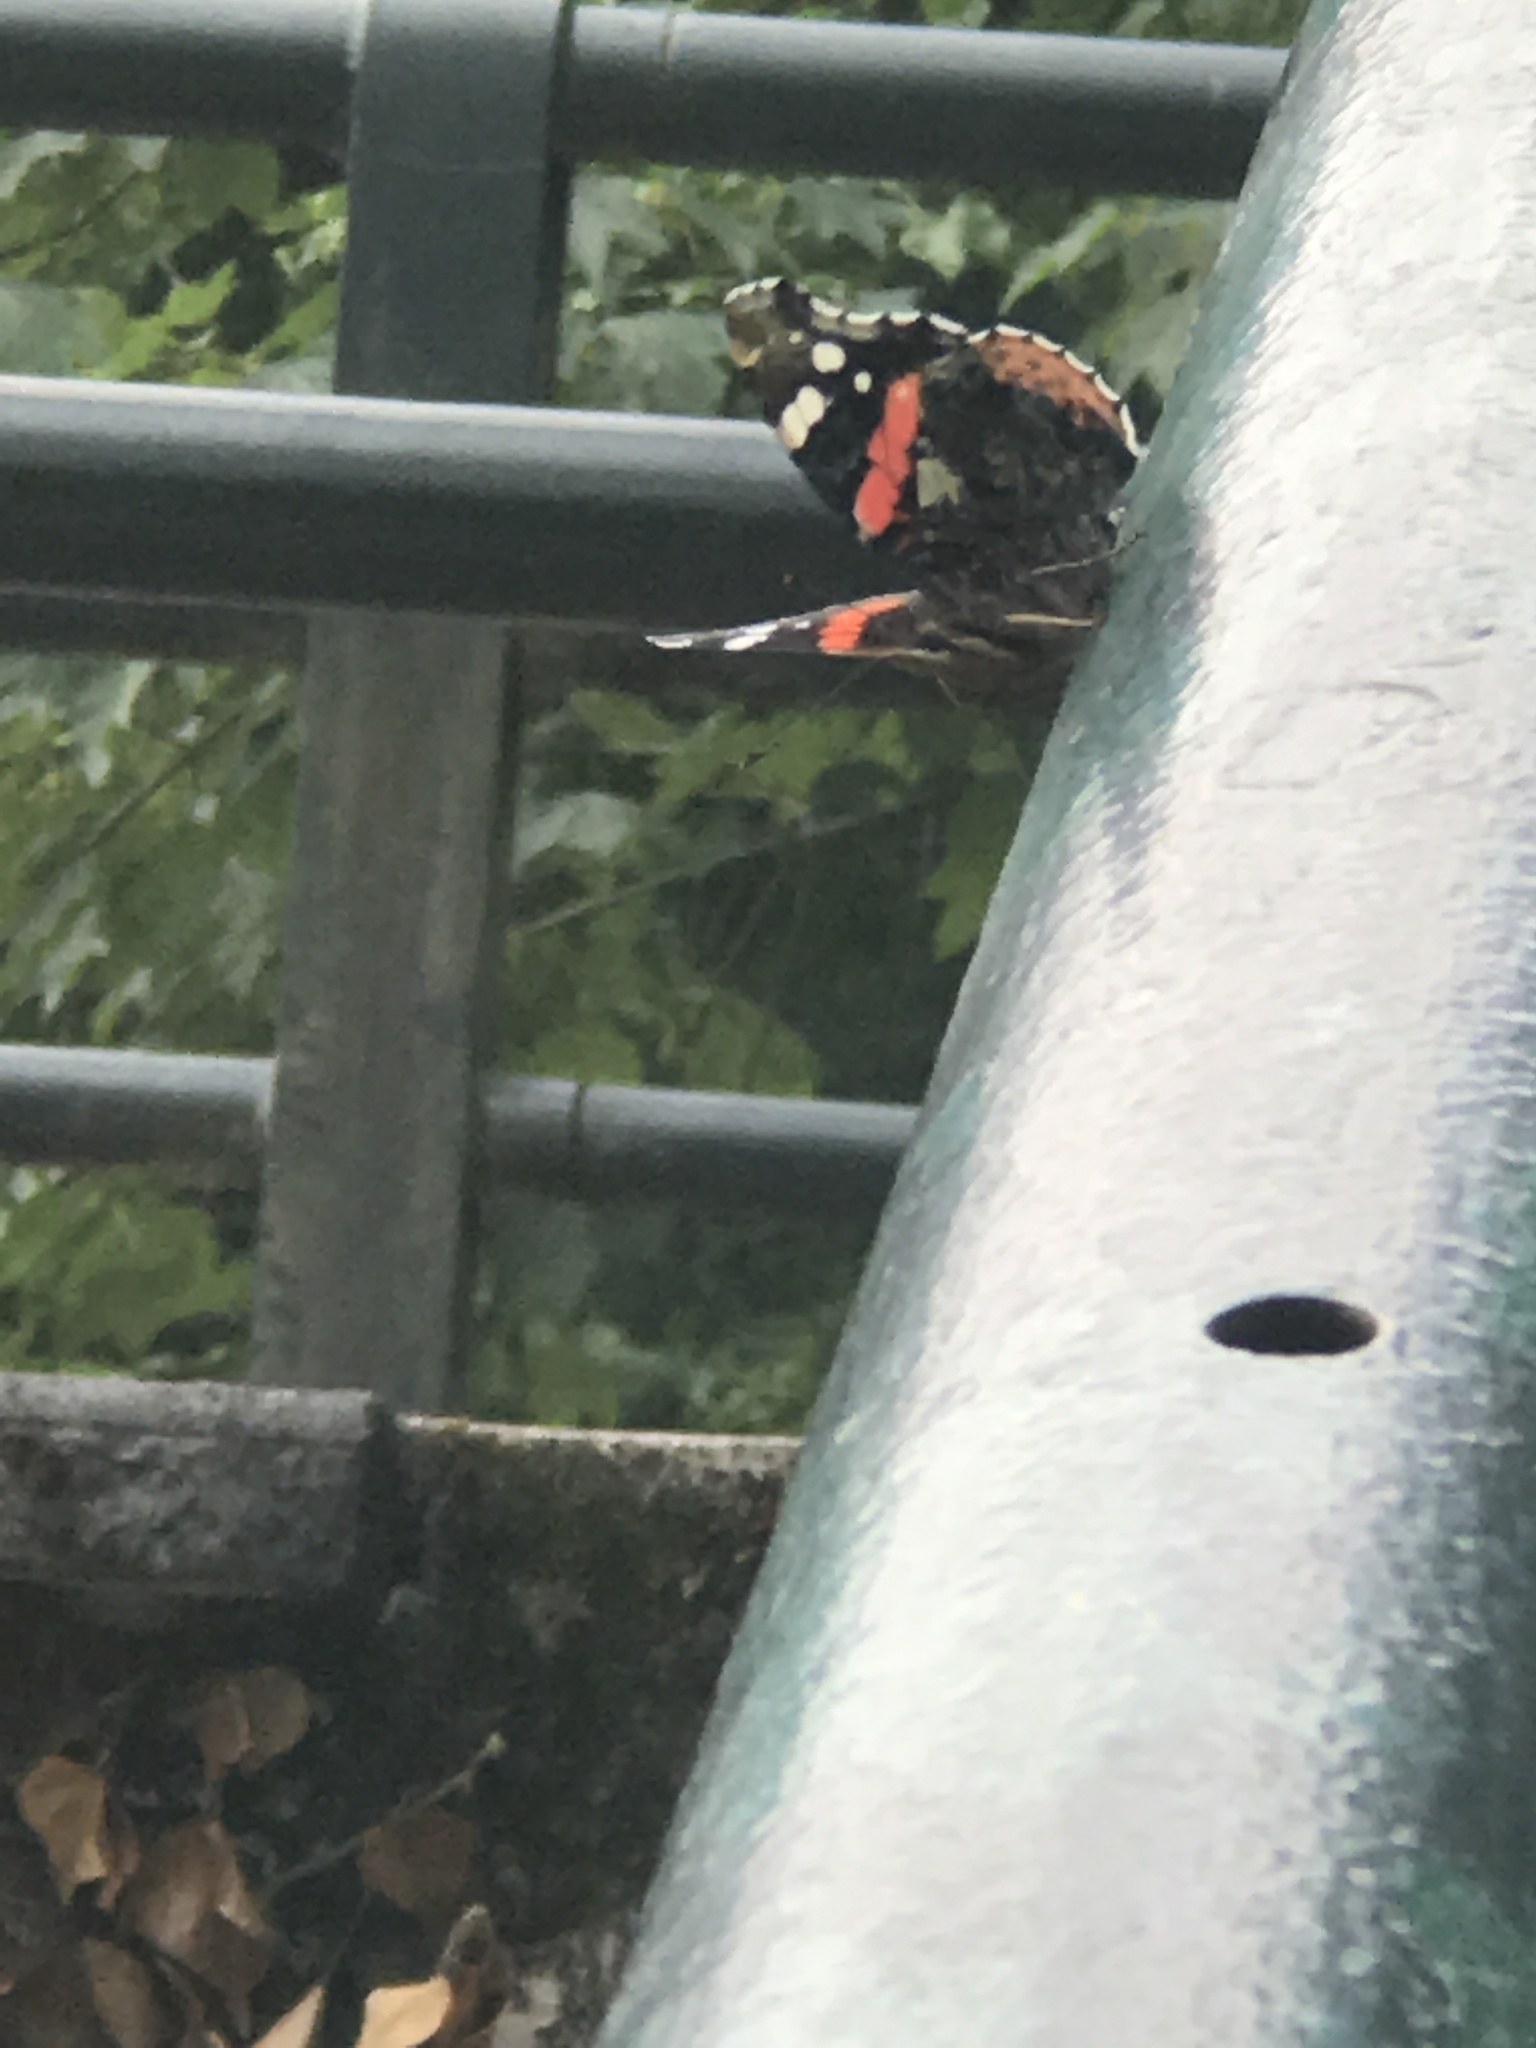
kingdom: Animalia
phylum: Arthropoda
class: Insecta
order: Lepidoptera
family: Nymphalidae
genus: Vanessa
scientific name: Vanessa atalanta
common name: Red admiral
